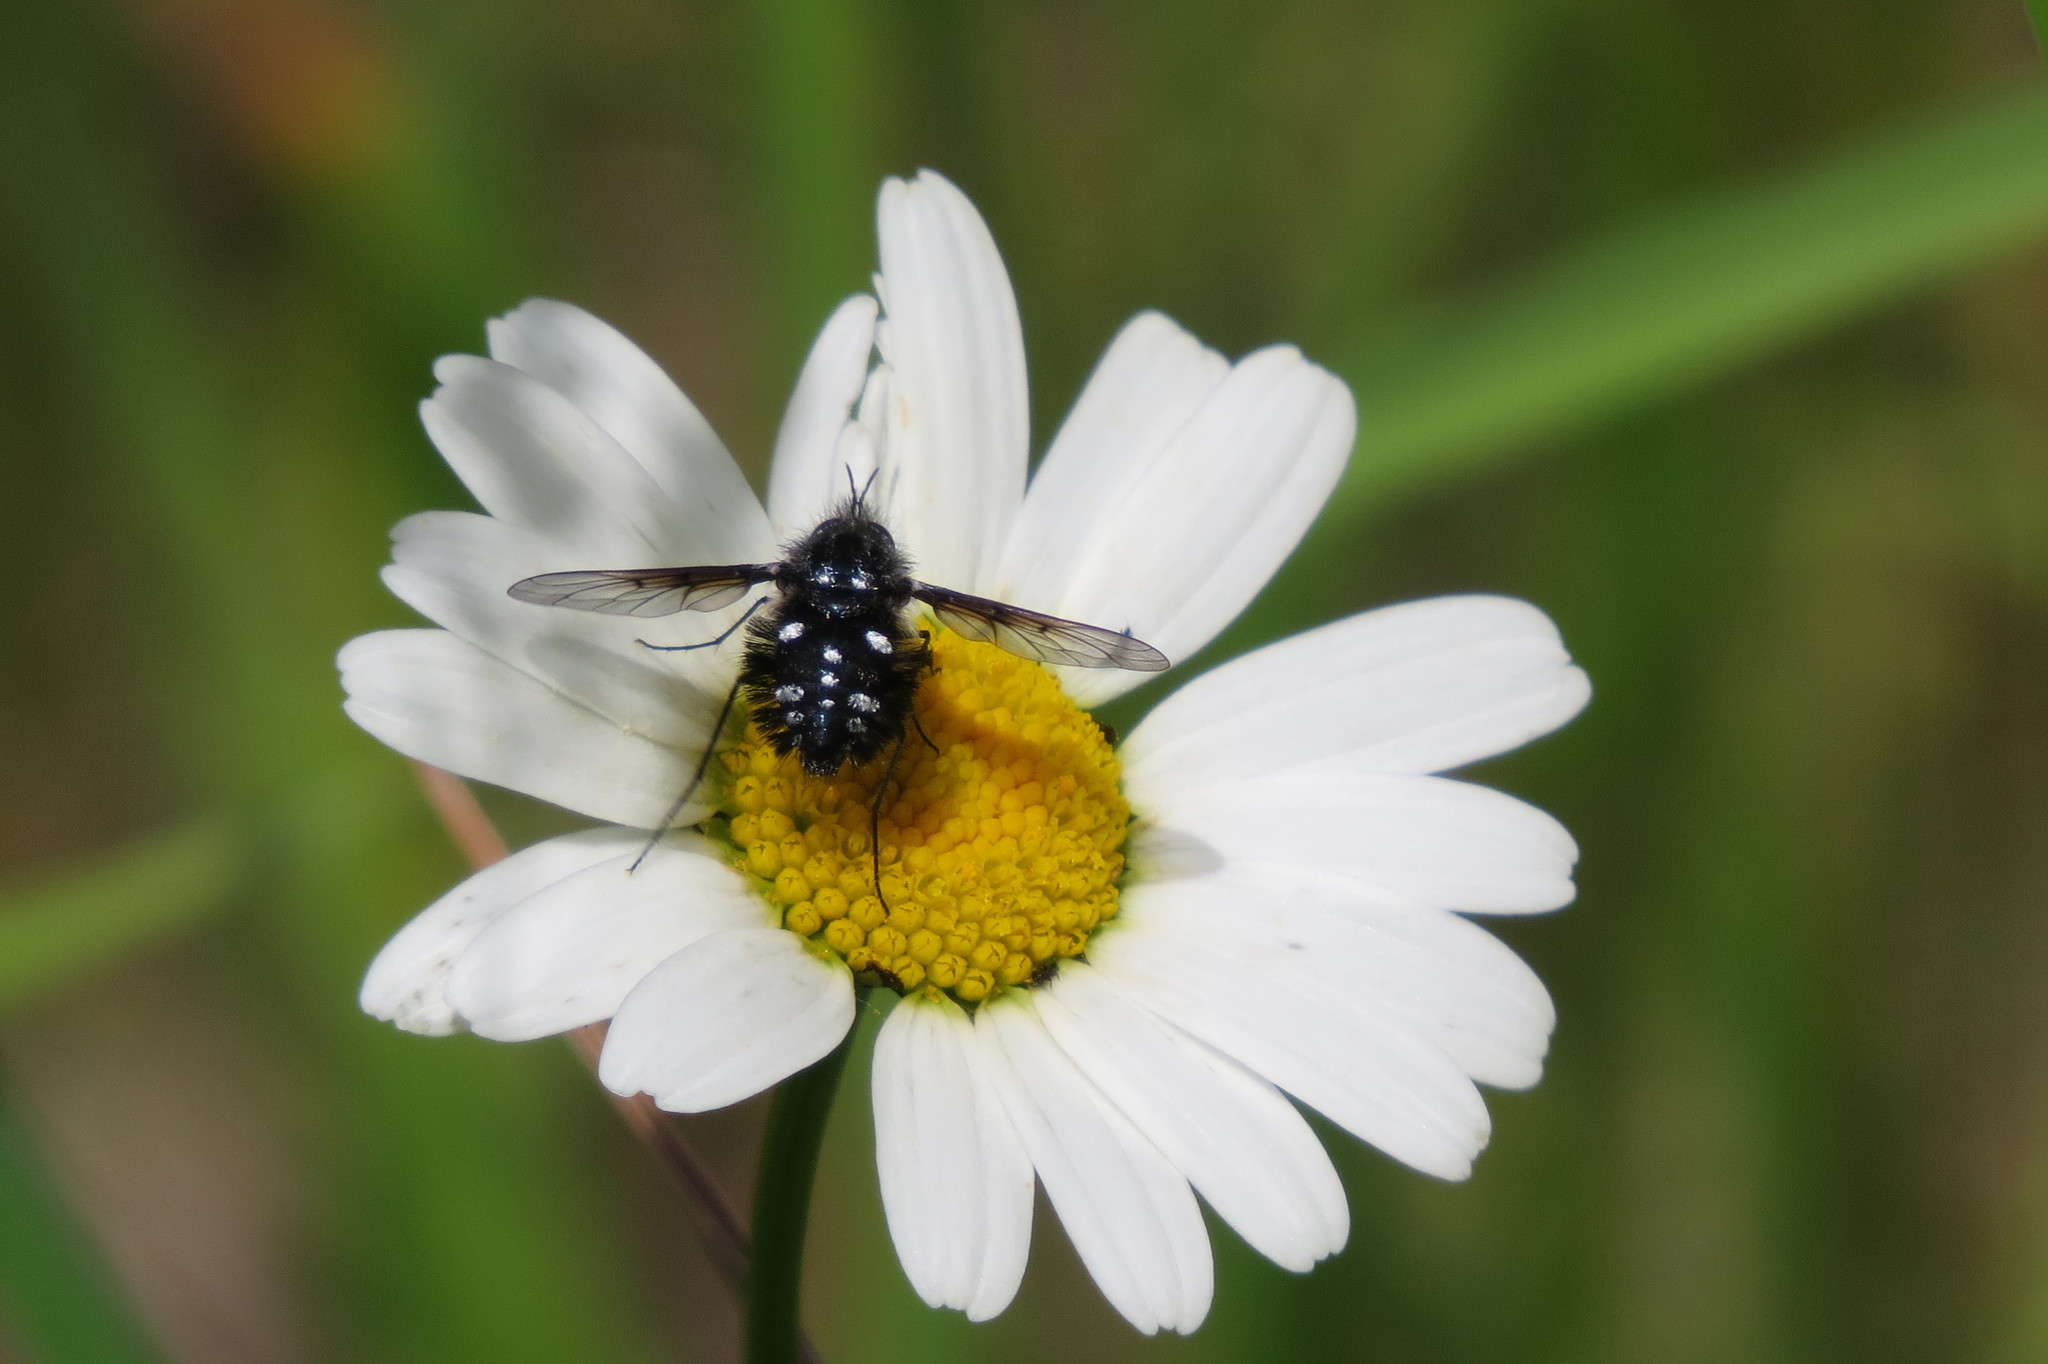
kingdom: Animalia
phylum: Arthropoda
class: Insecta
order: Diptera
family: Bombyliidae
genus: Bombylella
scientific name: Bombylella atra
